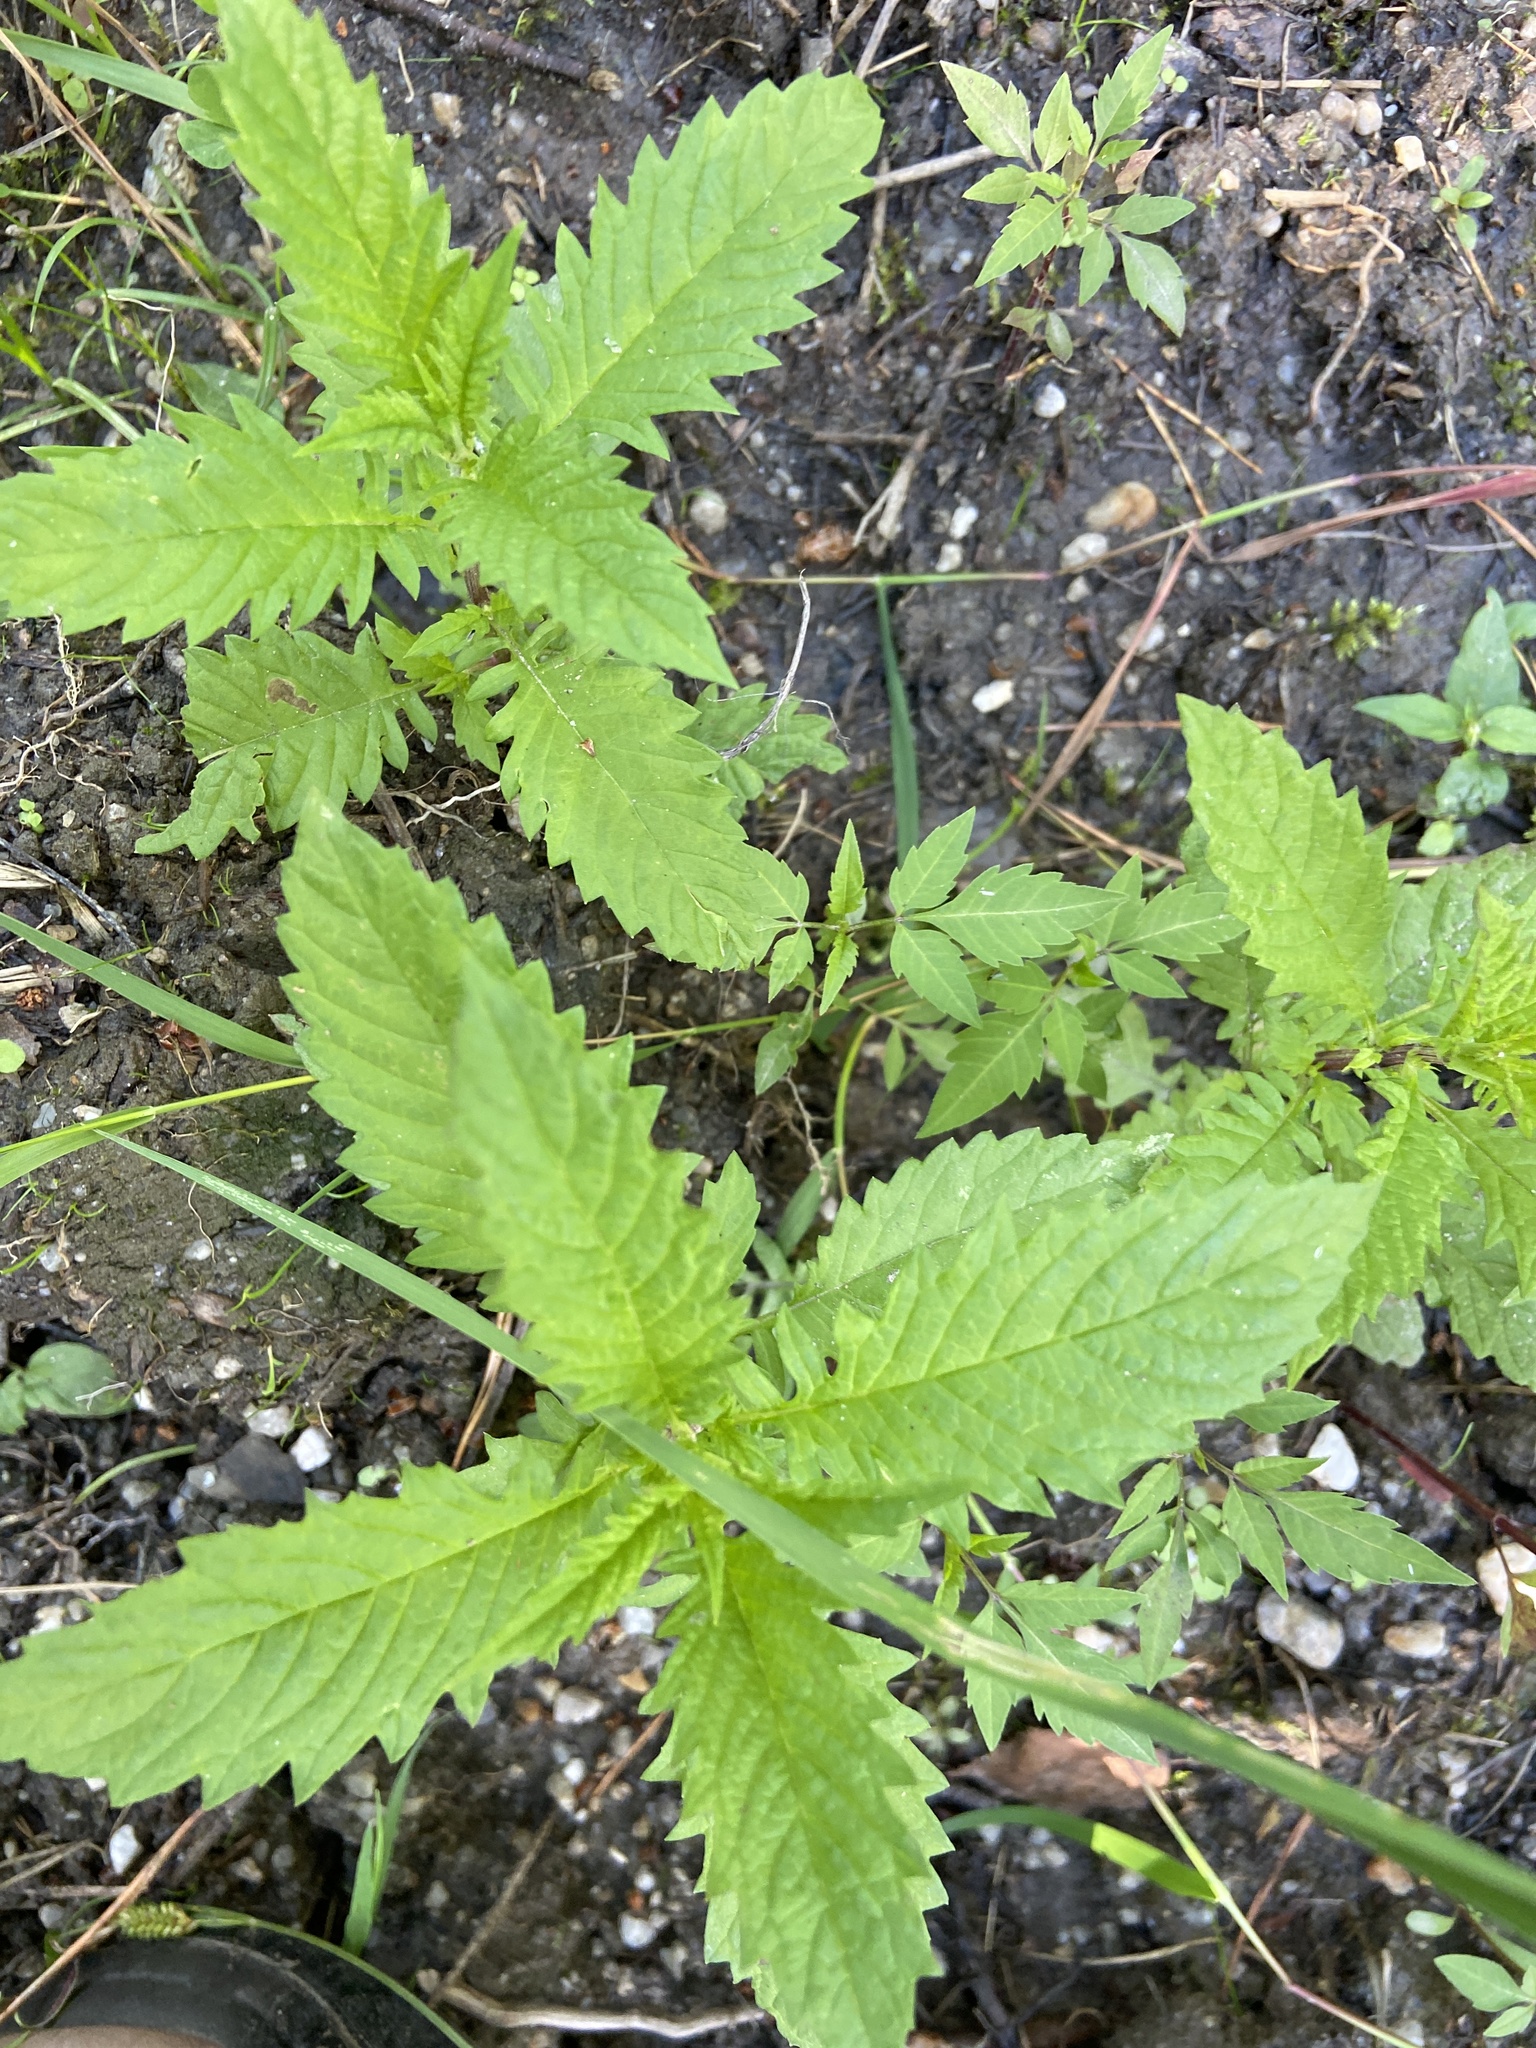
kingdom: Plantae
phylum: Tracheophyta
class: Magnoliopsida
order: Lamiales
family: Lamiaceae
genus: Lycopus
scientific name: Lycopus europaeus
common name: European bugleweed
